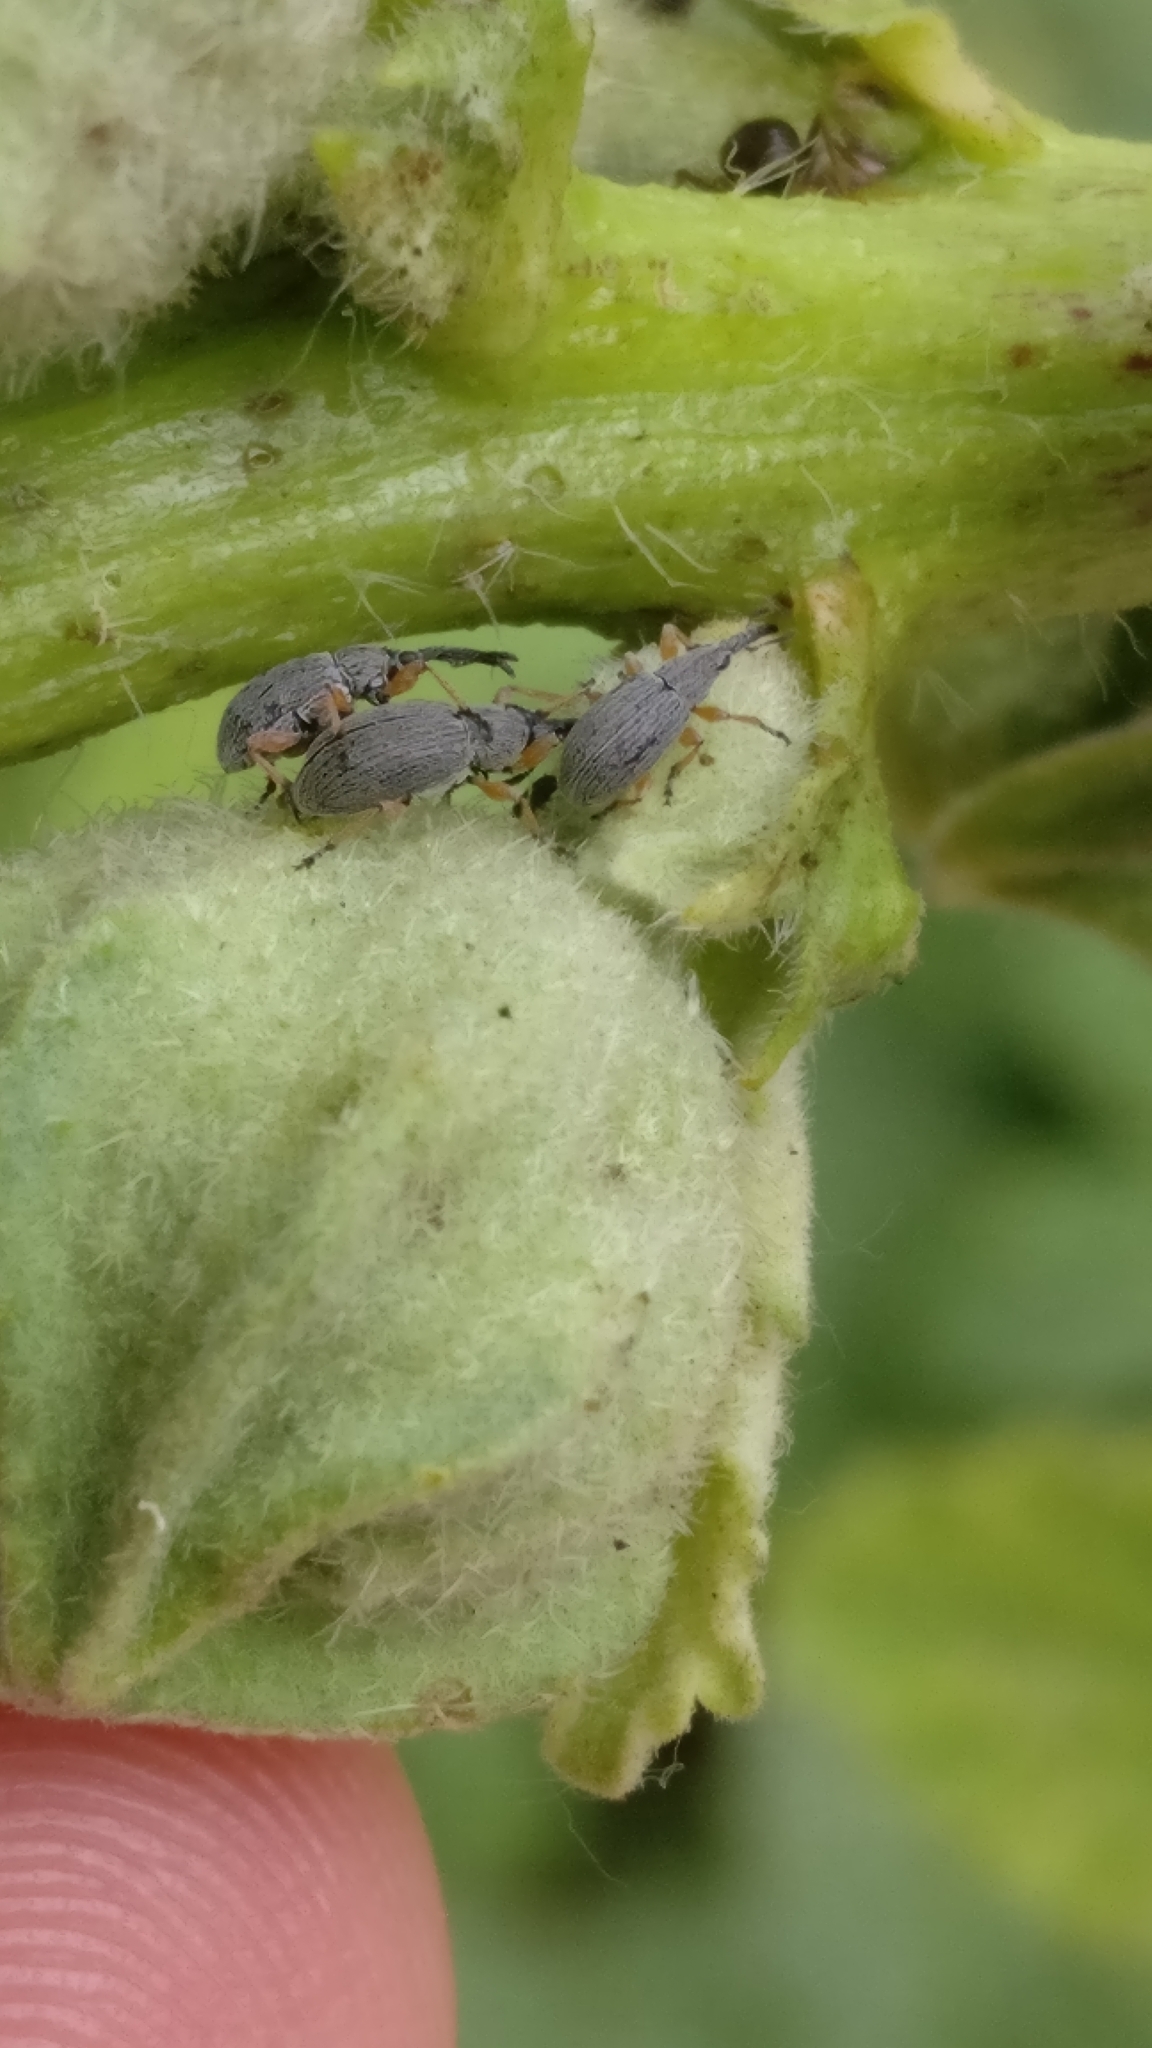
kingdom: Animalia
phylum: Arthropoda
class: Insecta
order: Coleoptera
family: Brentidae
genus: Rhopalapion
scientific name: Rhopalapion longirostre
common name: Hollyhock weevil
